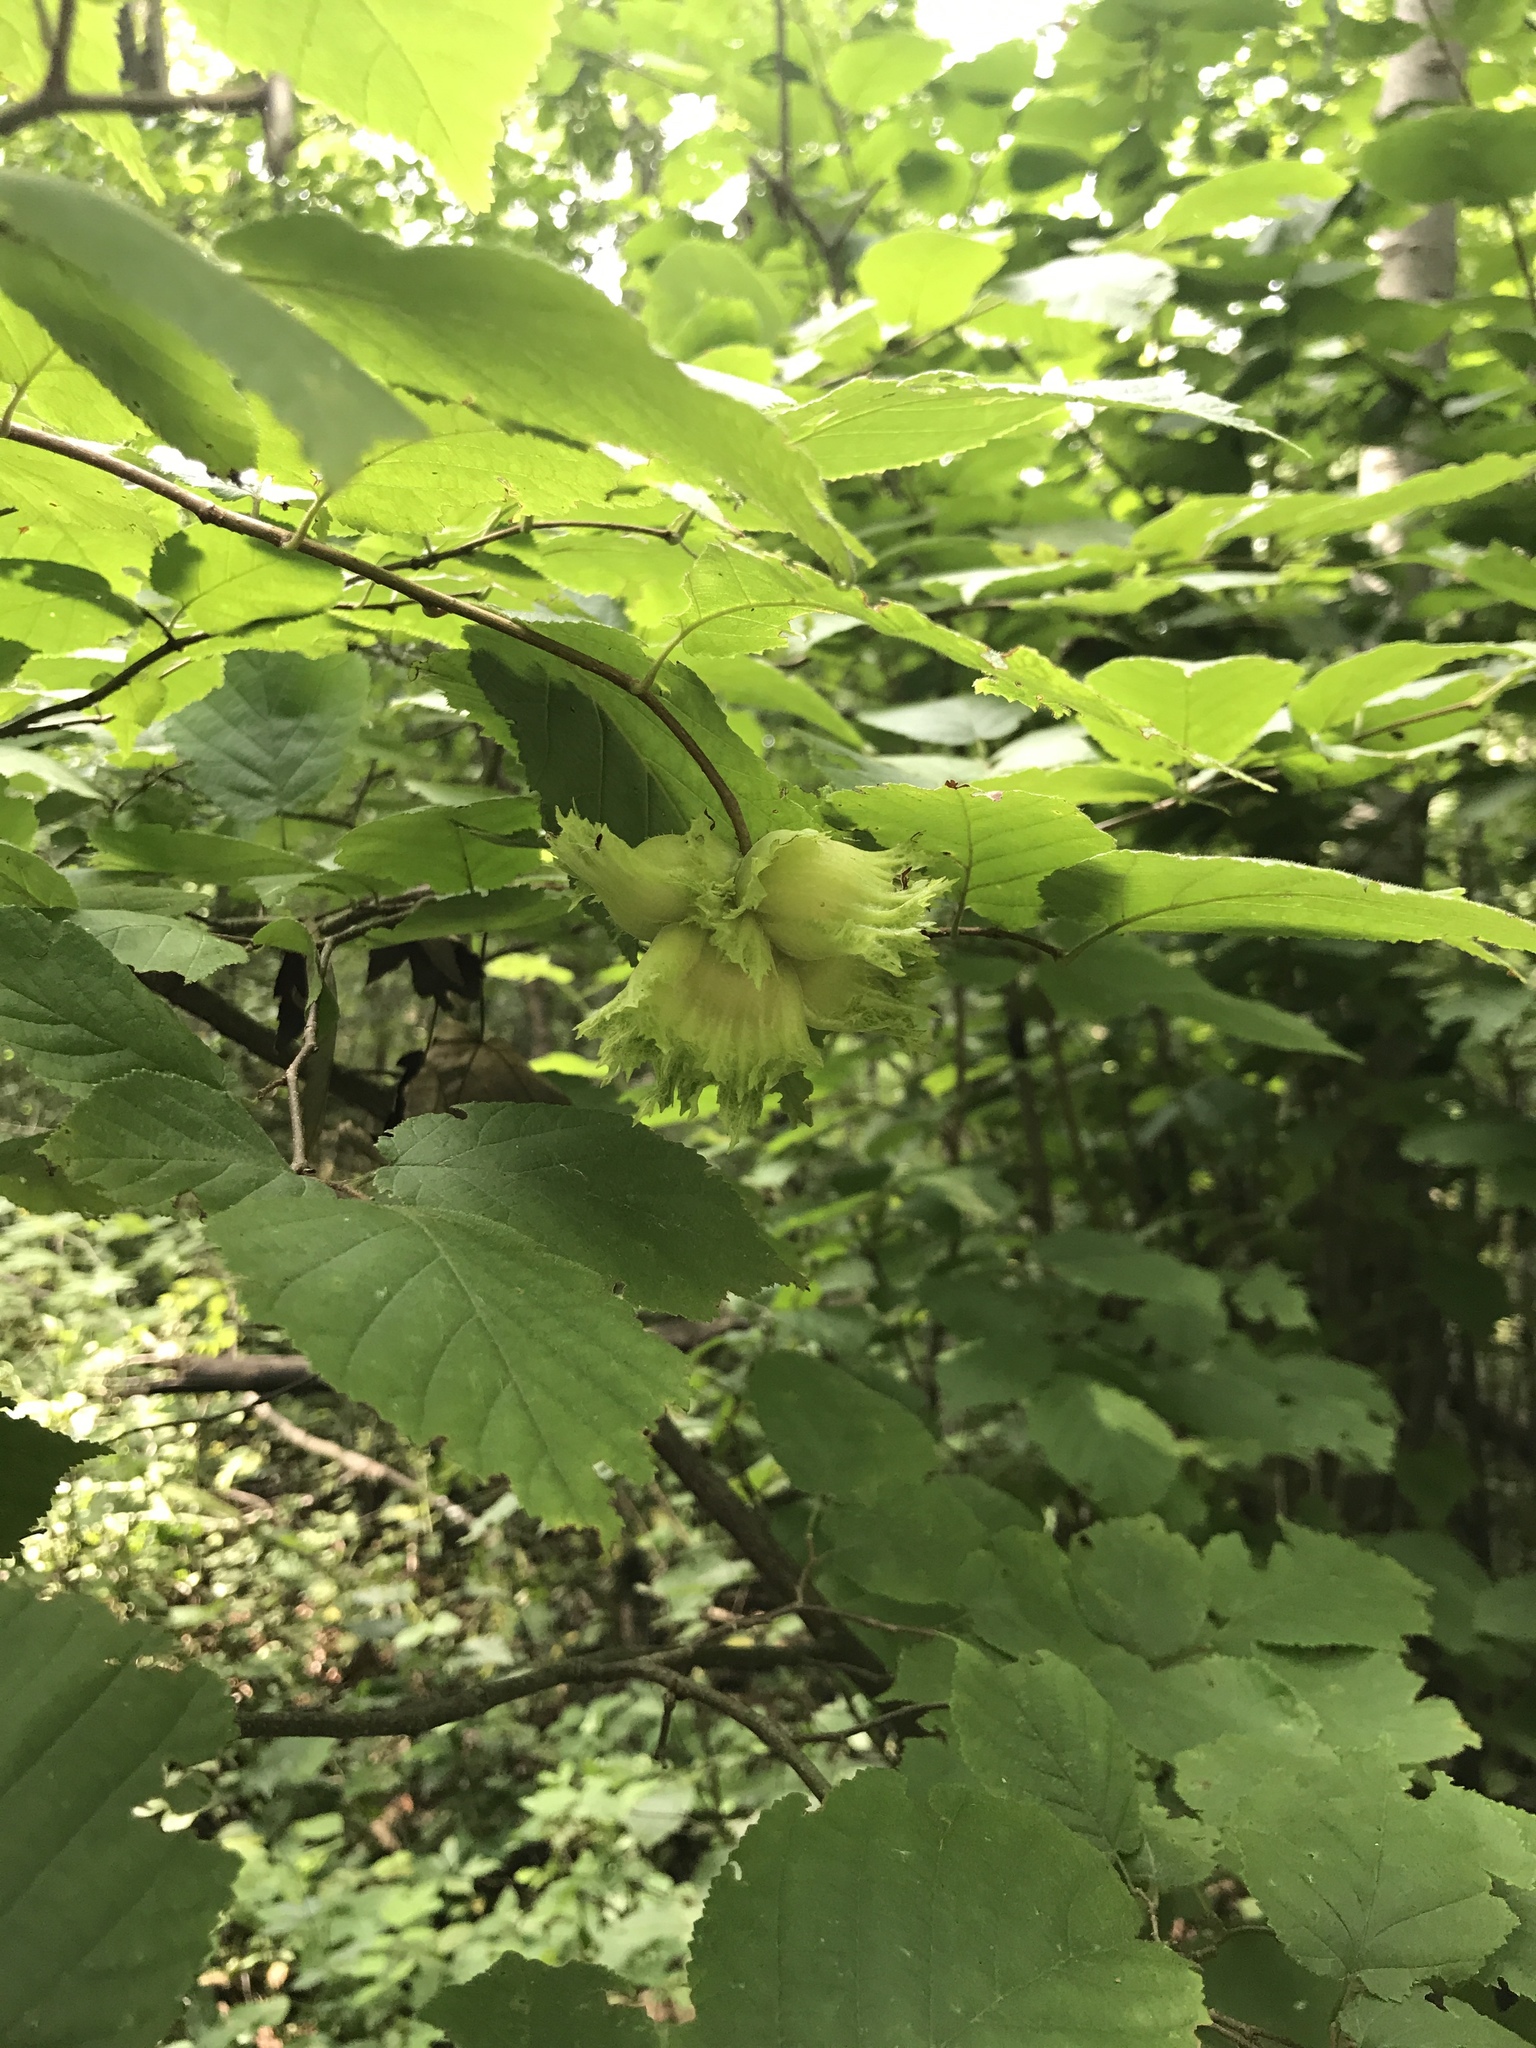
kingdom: Plantae
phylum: Tracheophyta
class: Magnoliopsida
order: Fagales
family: Betulaceae
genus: Corylus
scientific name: Corylus americana
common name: American hazel
